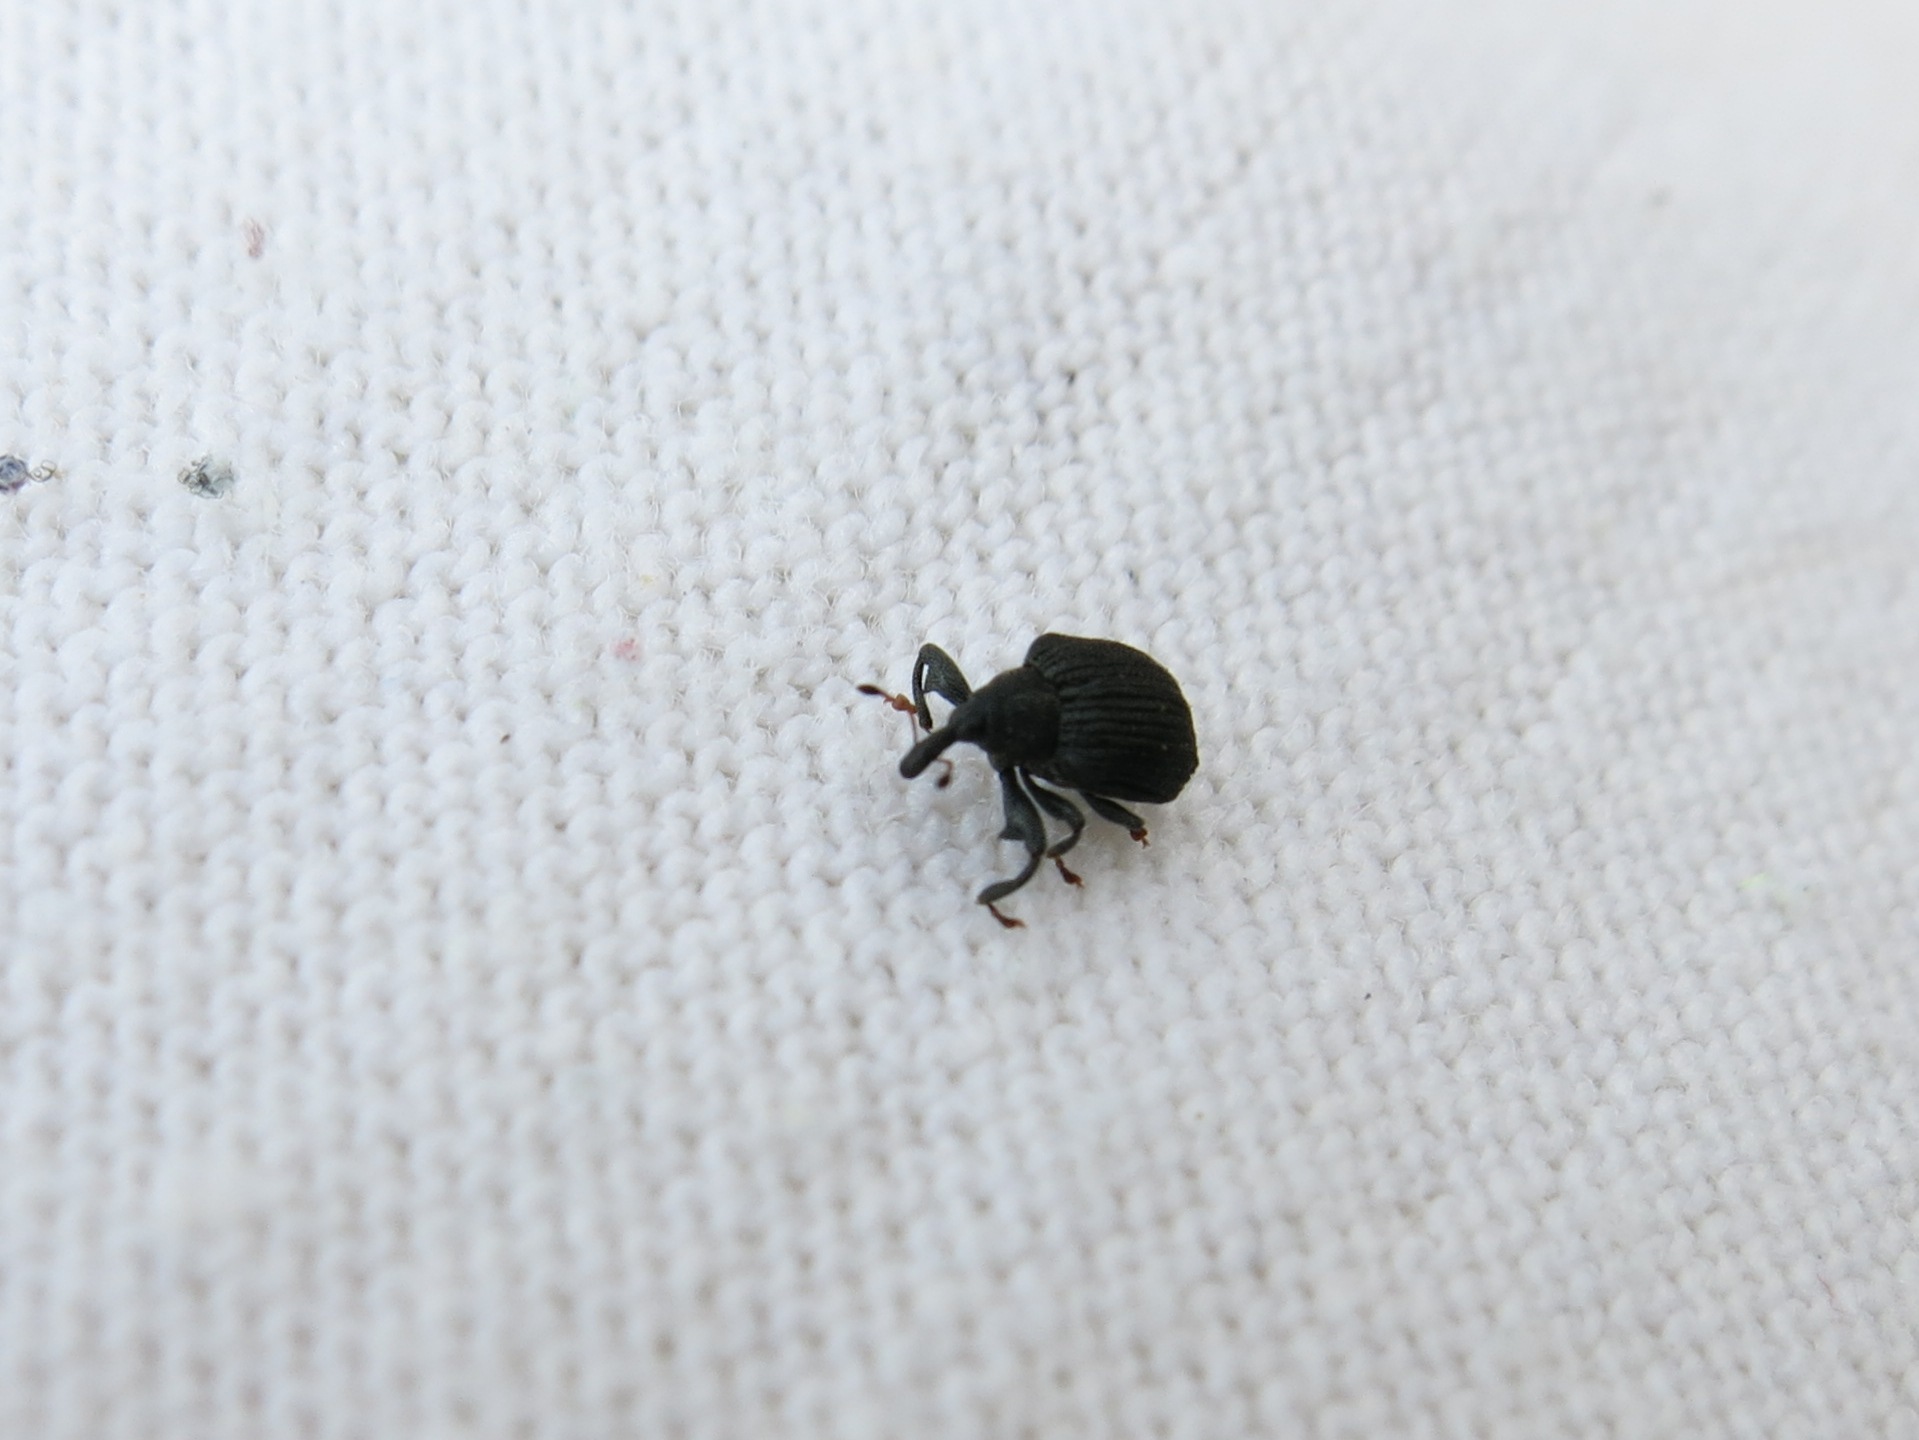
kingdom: Animalia
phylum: Arthropoda
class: Insecta
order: Coleoptera
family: Curculionidae
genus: Odontopus
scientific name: Odontopus calceatus
